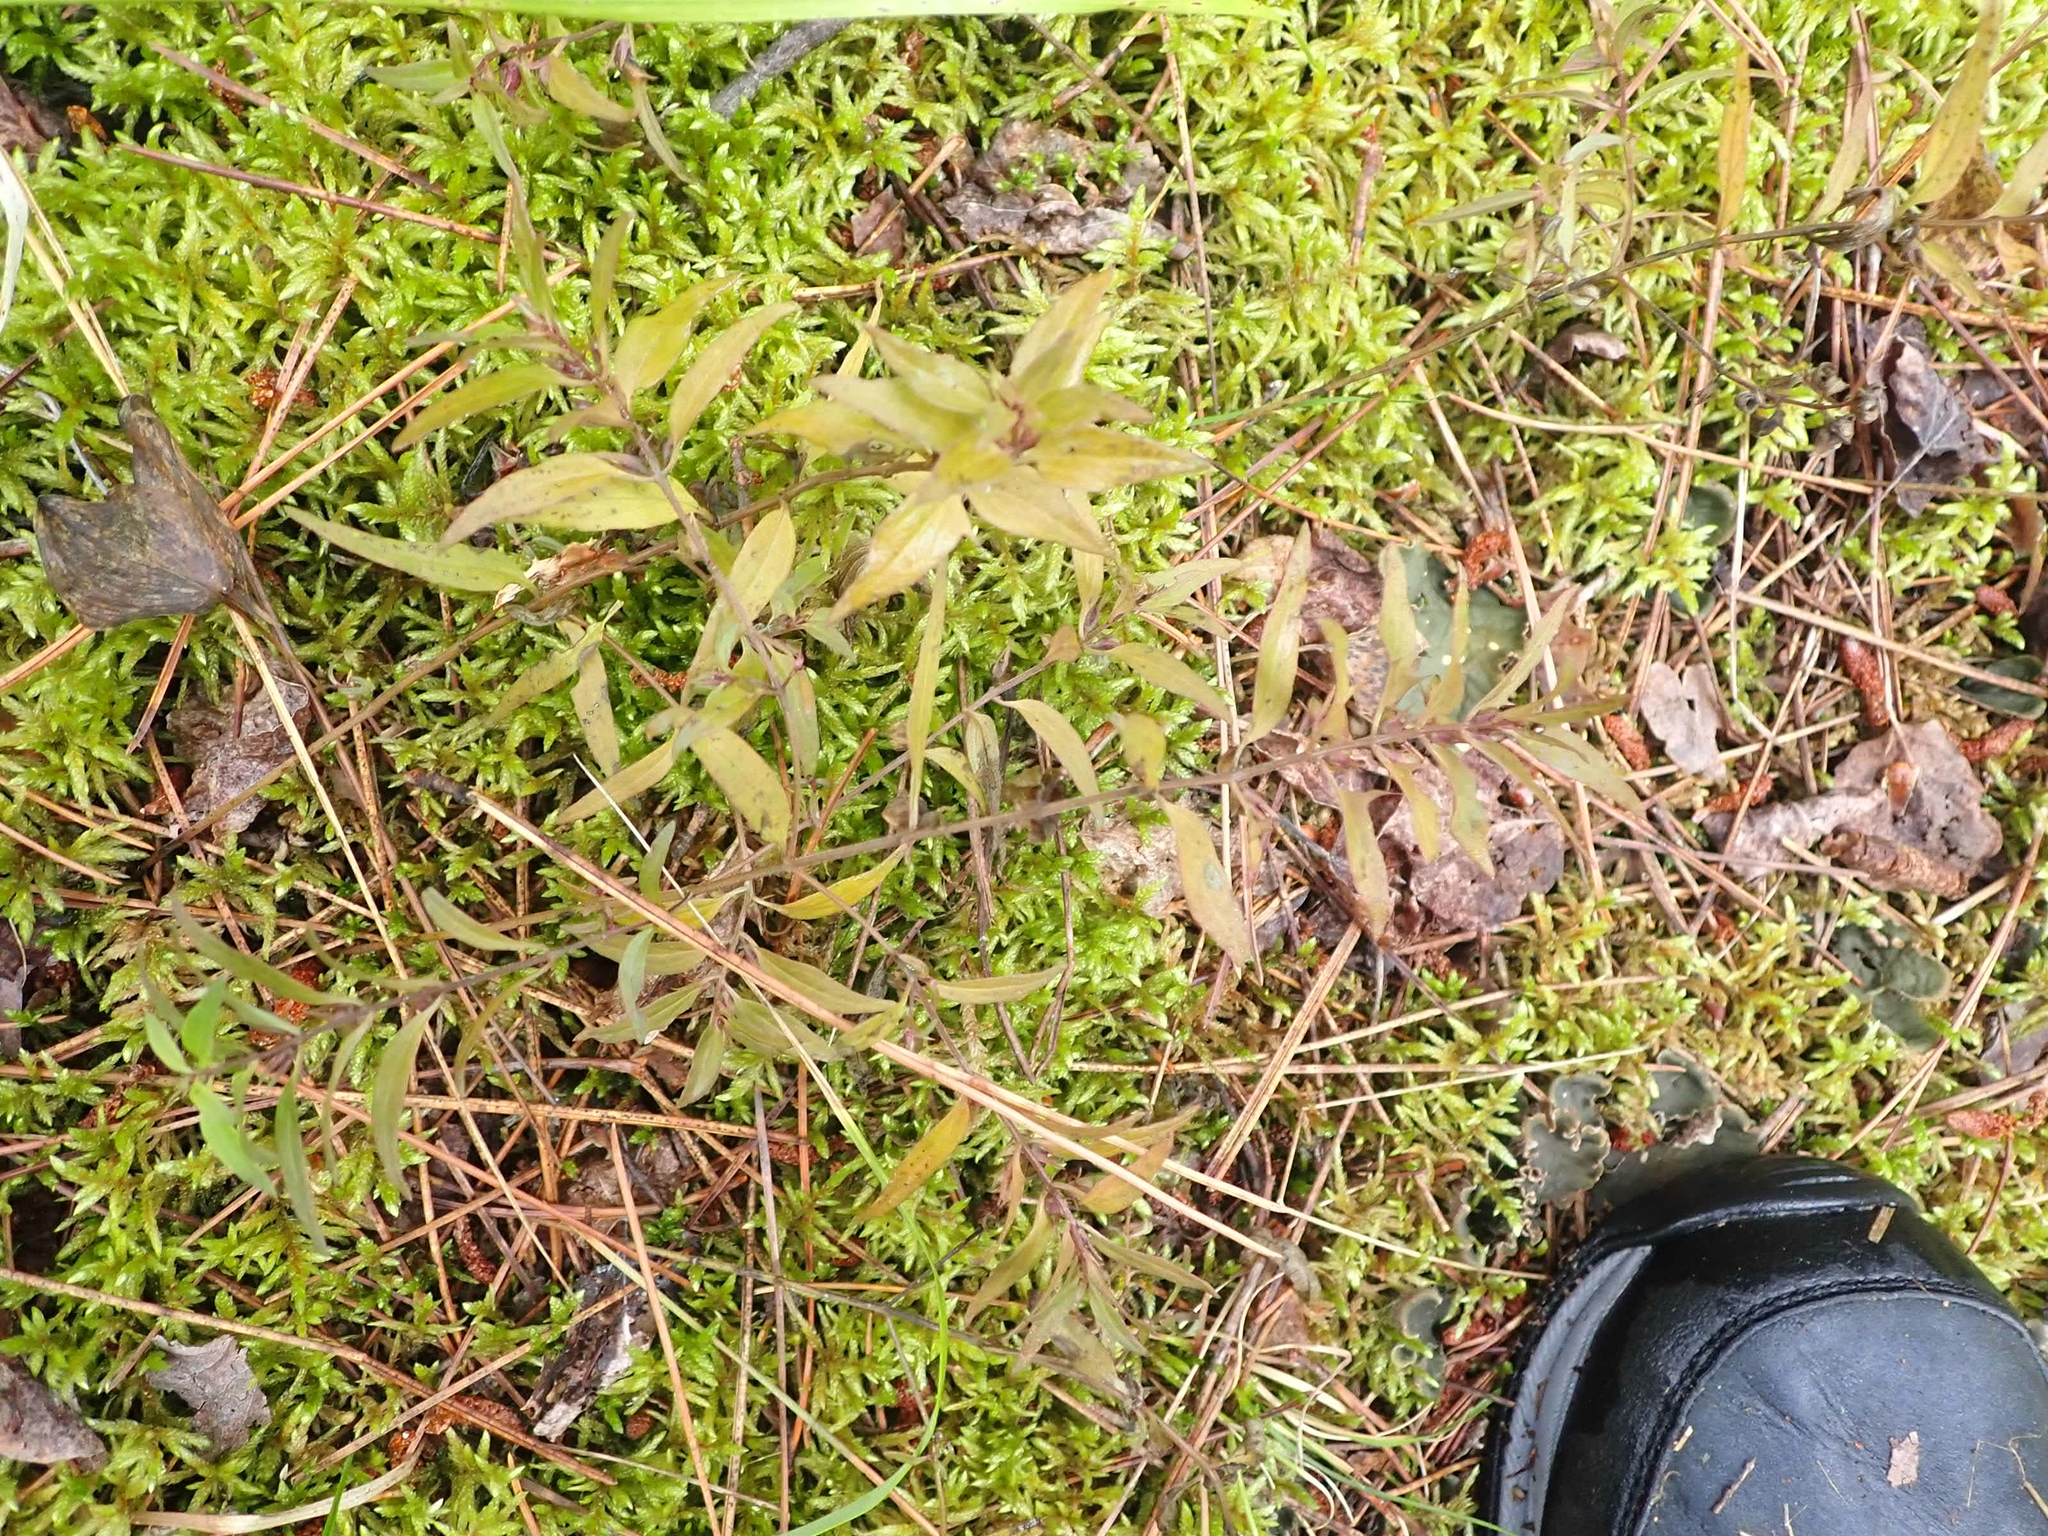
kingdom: Plantae
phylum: Tracheophyta
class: Magnoliopsida
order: Lamiales
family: Orobanchaceae
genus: Melampyrum
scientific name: Melampyrum lineare
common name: American cow-wheat
